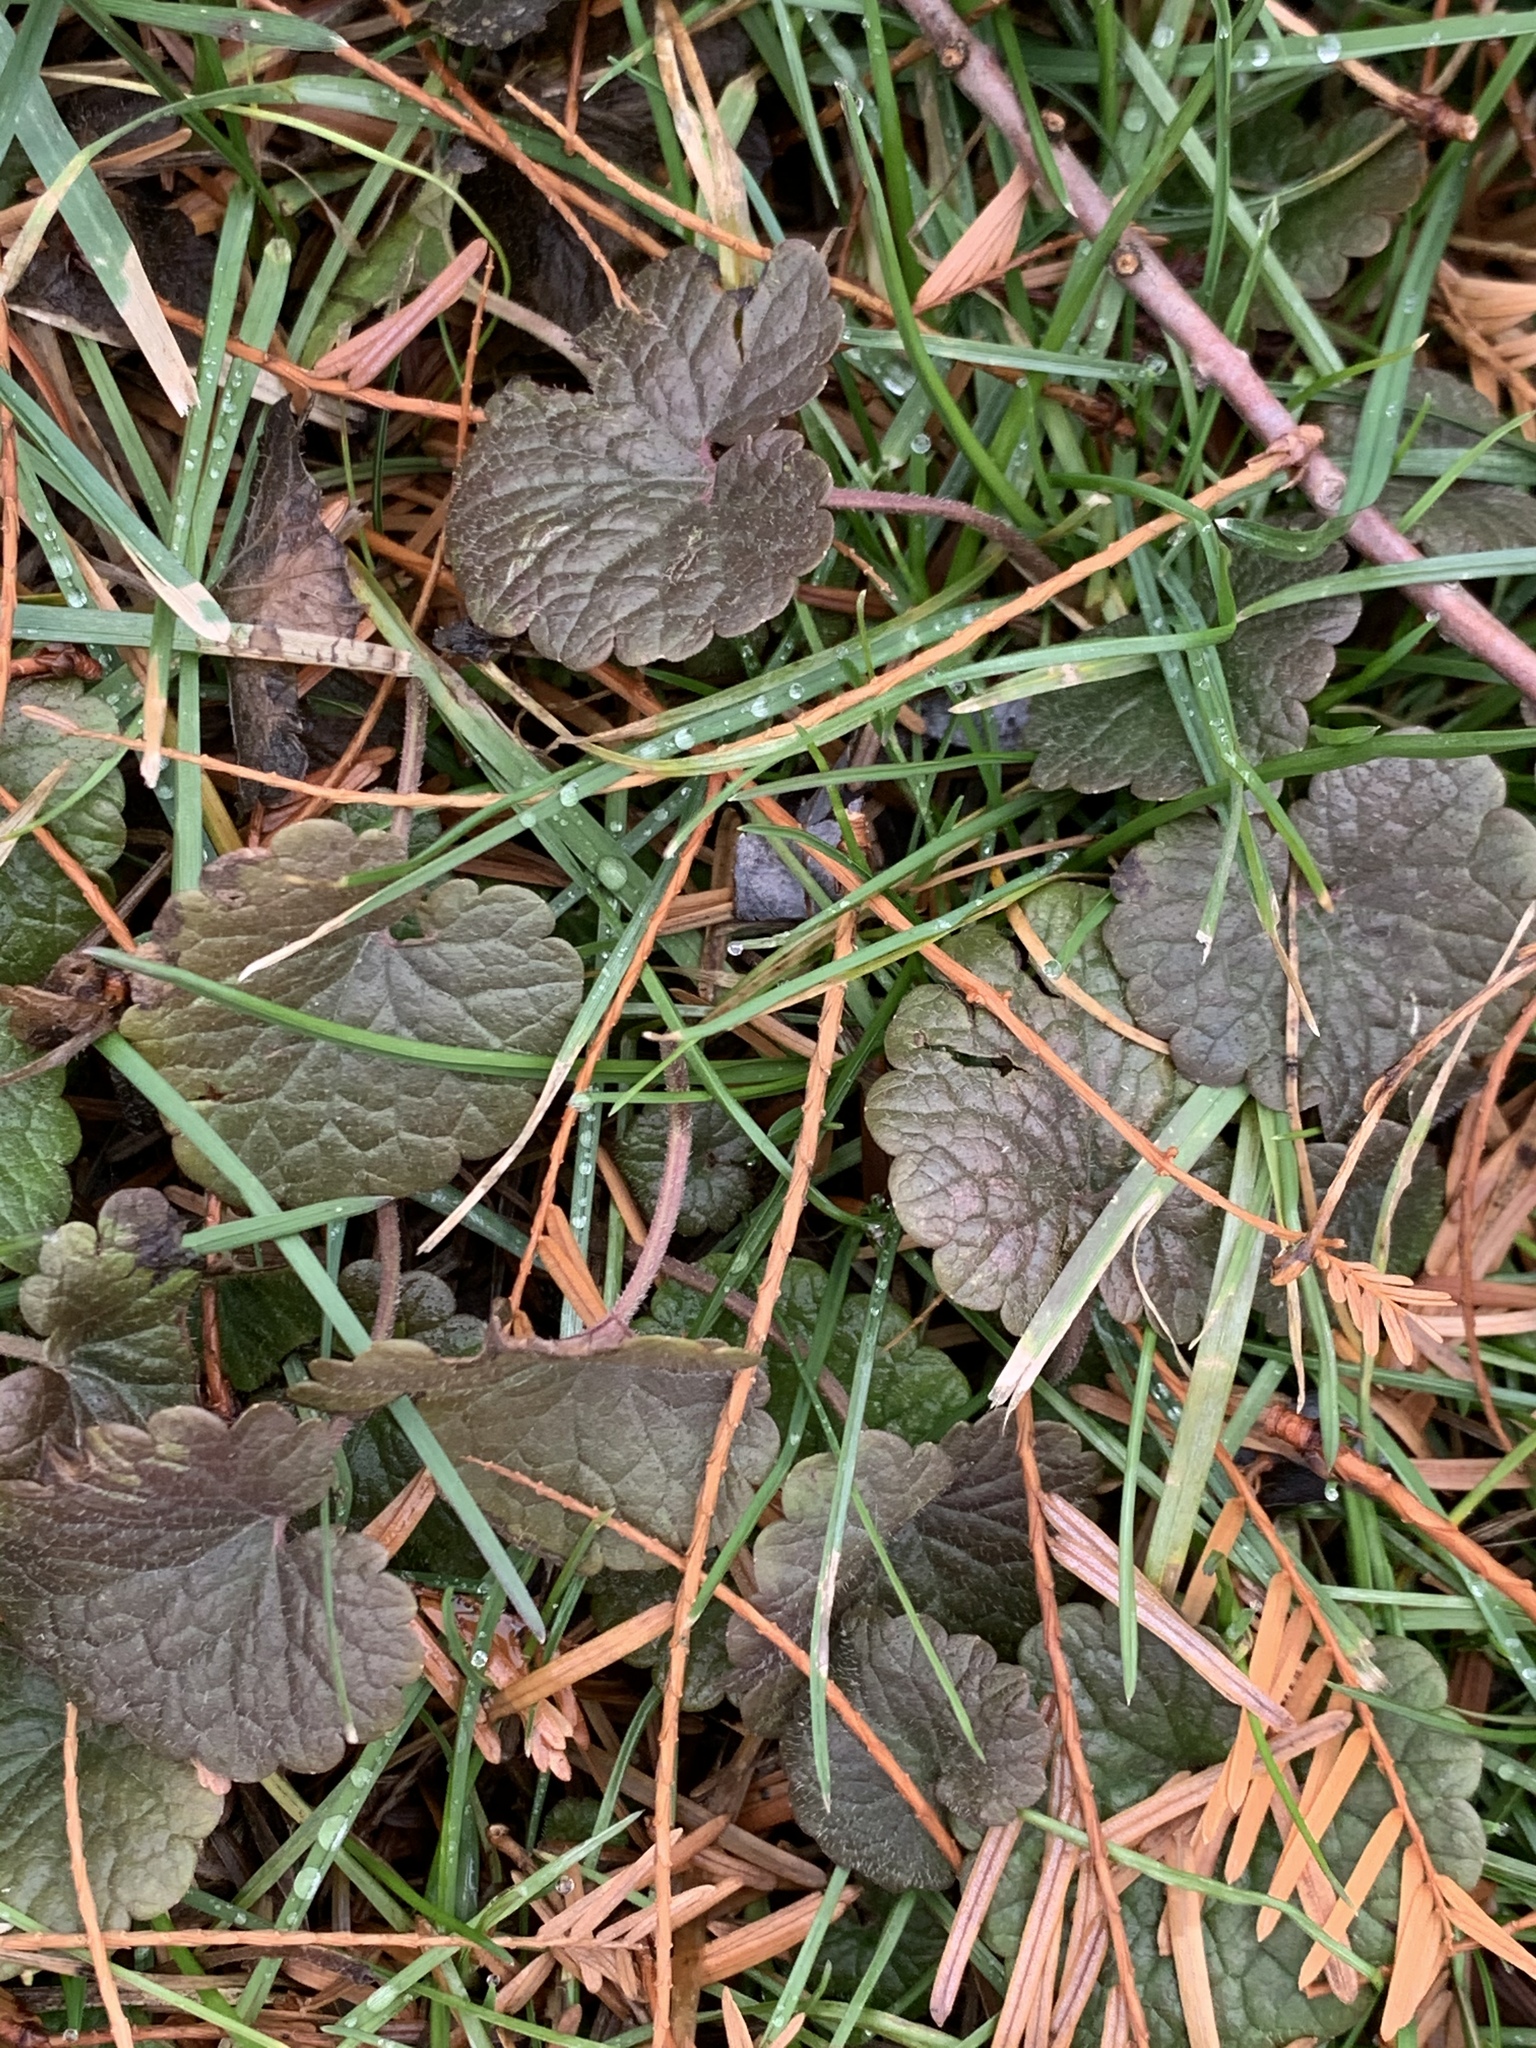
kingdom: Plantae
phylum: Tracheophyta
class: Magnoliopsida
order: Lamiales
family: Lamiaceae
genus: Glechoma
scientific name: Glechoma hederacea
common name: Ground ivy
